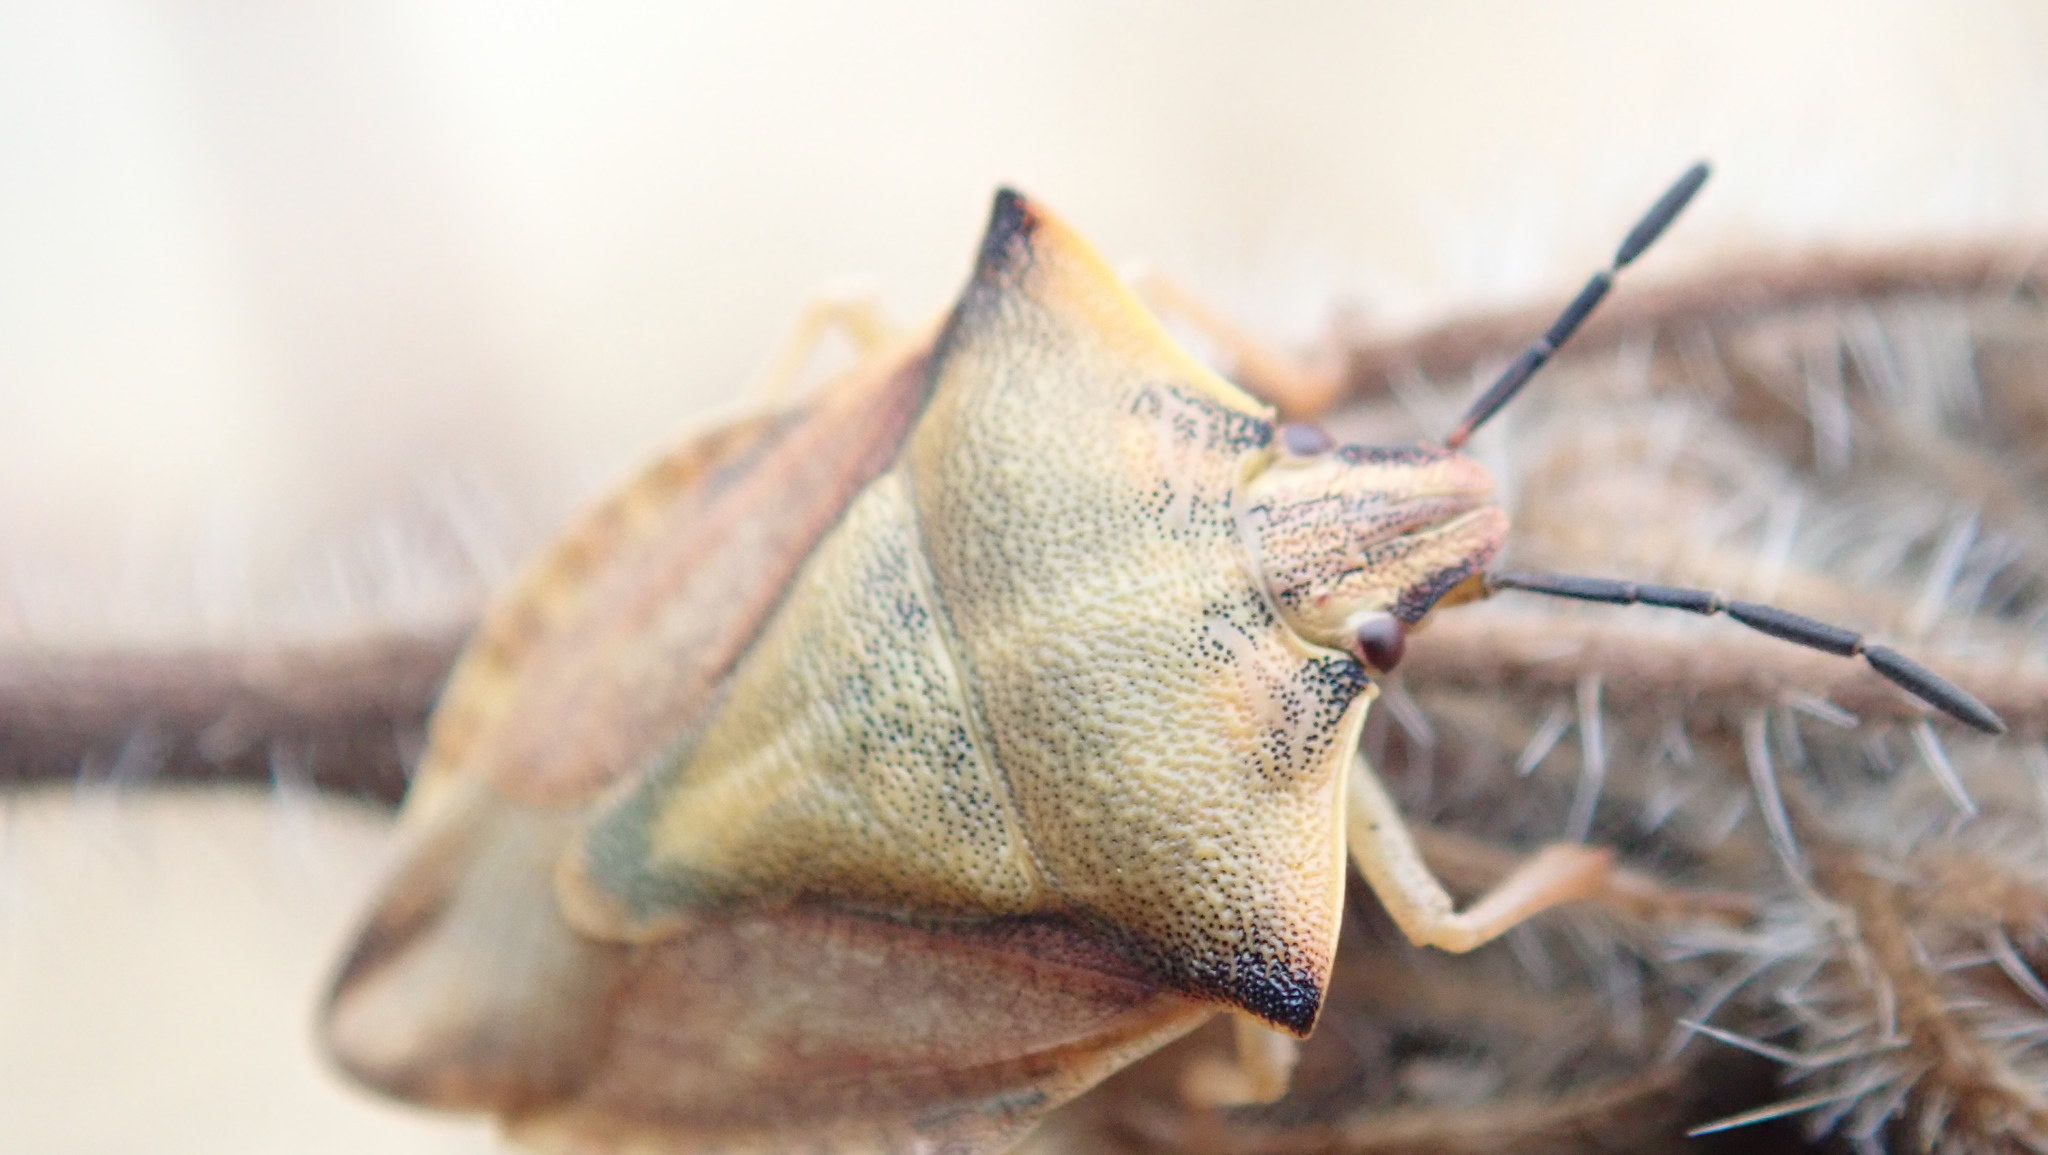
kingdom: Animalia
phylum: Arthropoda
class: Insecta
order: Hemiptera
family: Pentatomidae
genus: Carpocoris
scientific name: Carpocoris fuscispinus
